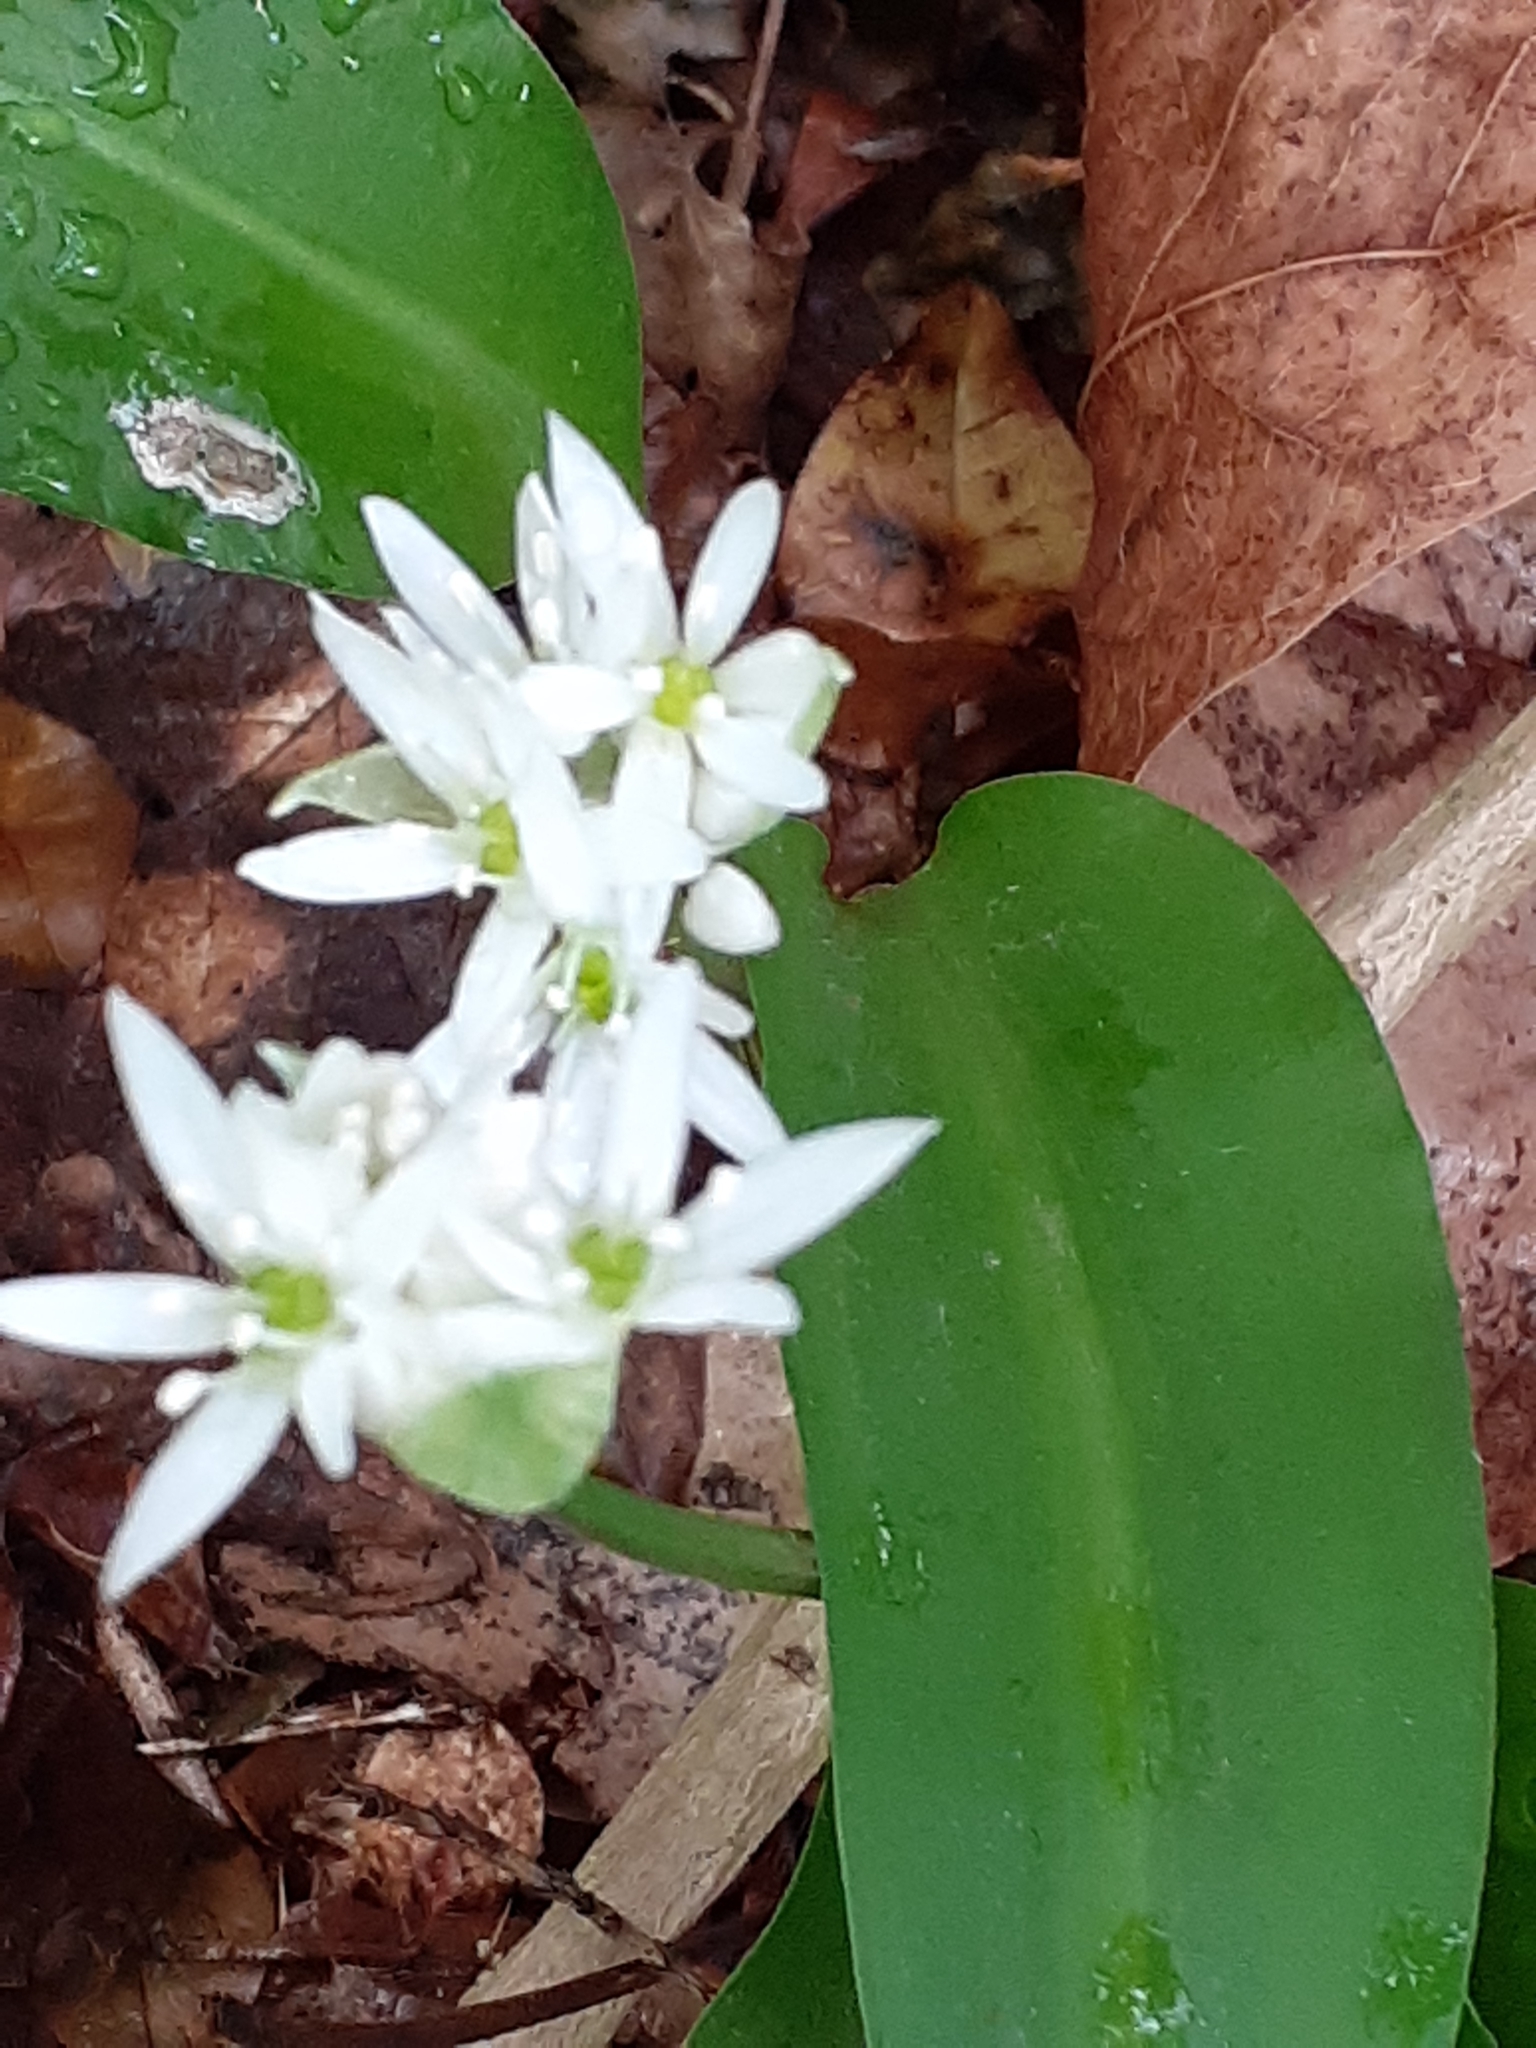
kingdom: Plantae
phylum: Tracheophyta
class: Liliopsida
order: Asparagales
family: Amaryllidaceae
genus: Allium
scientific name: Allium ursinum
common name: Ramsons
